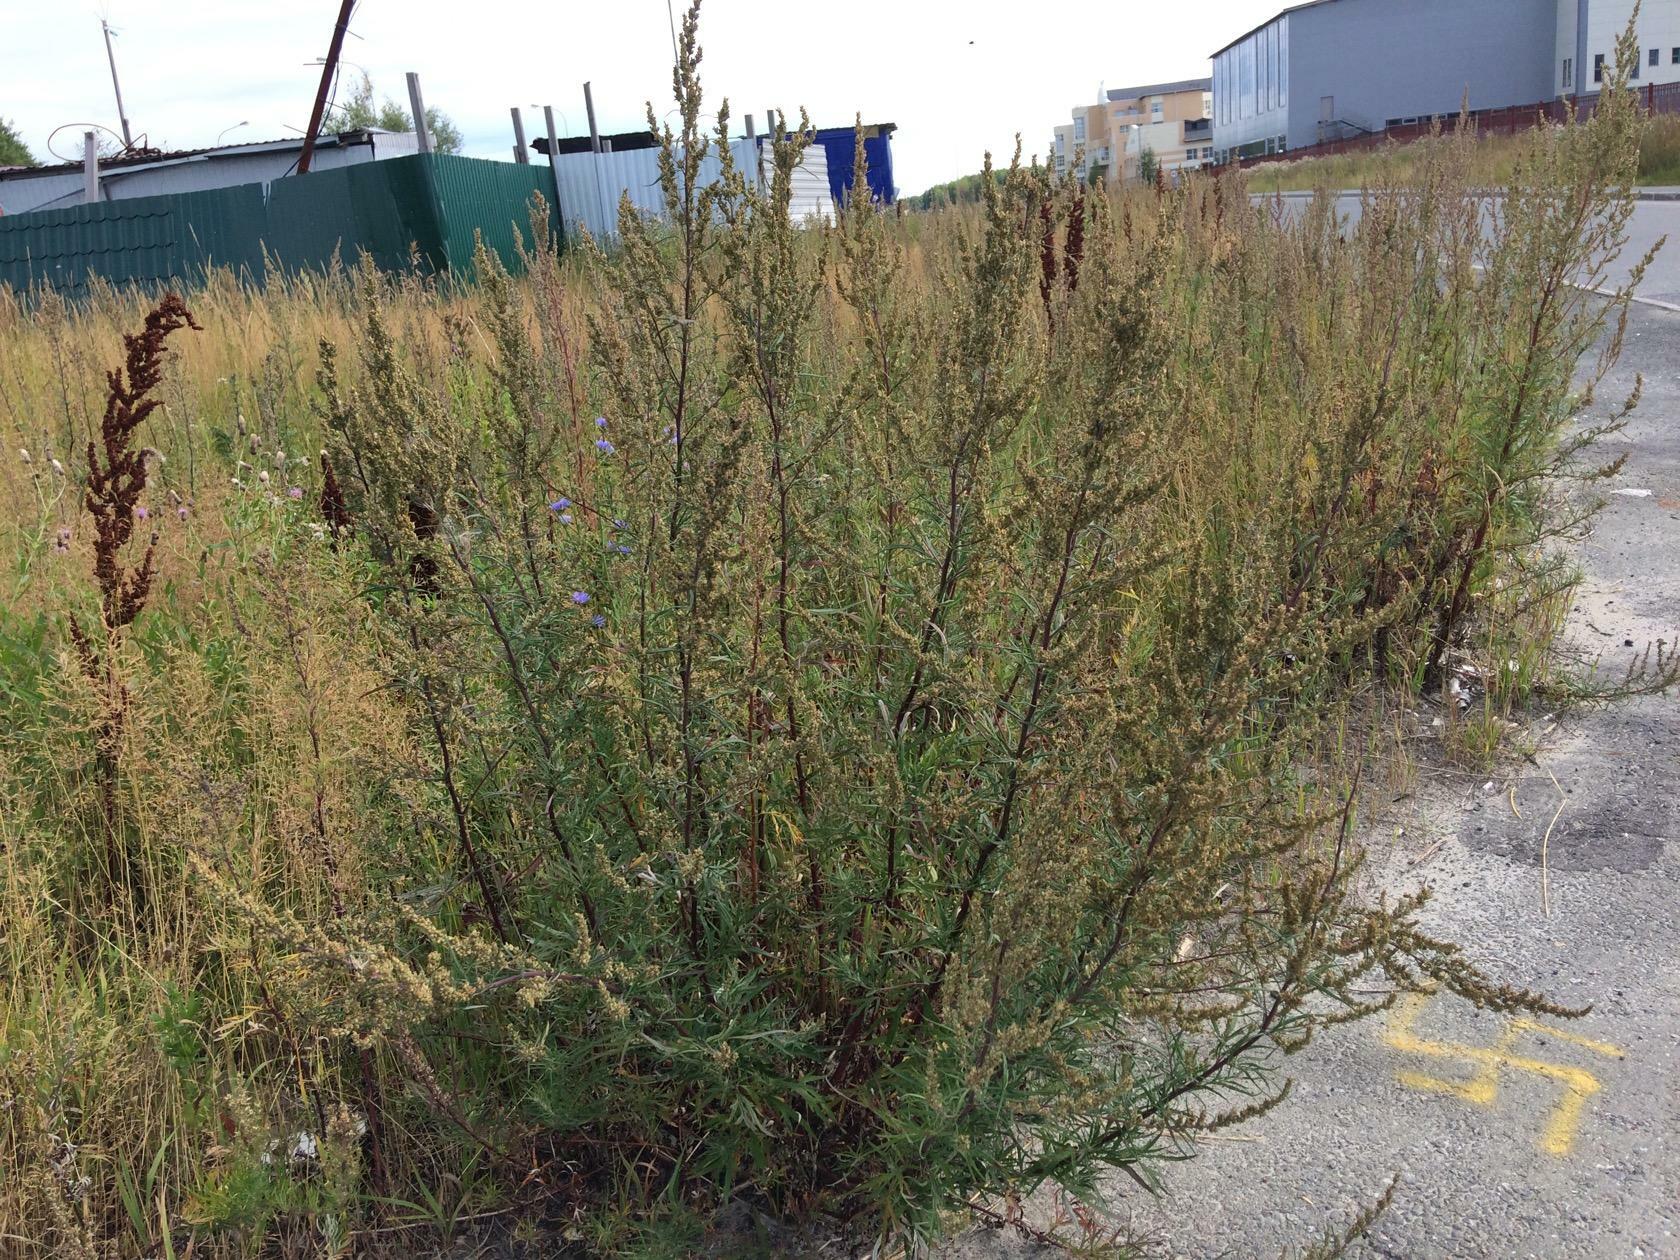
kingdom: Plantae
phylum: Tracheophyta
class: Magnoliopsida
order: Asterales
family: Asteraceae
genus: Artemisia
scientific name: Artemisia vulgaris
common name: Mugwort
